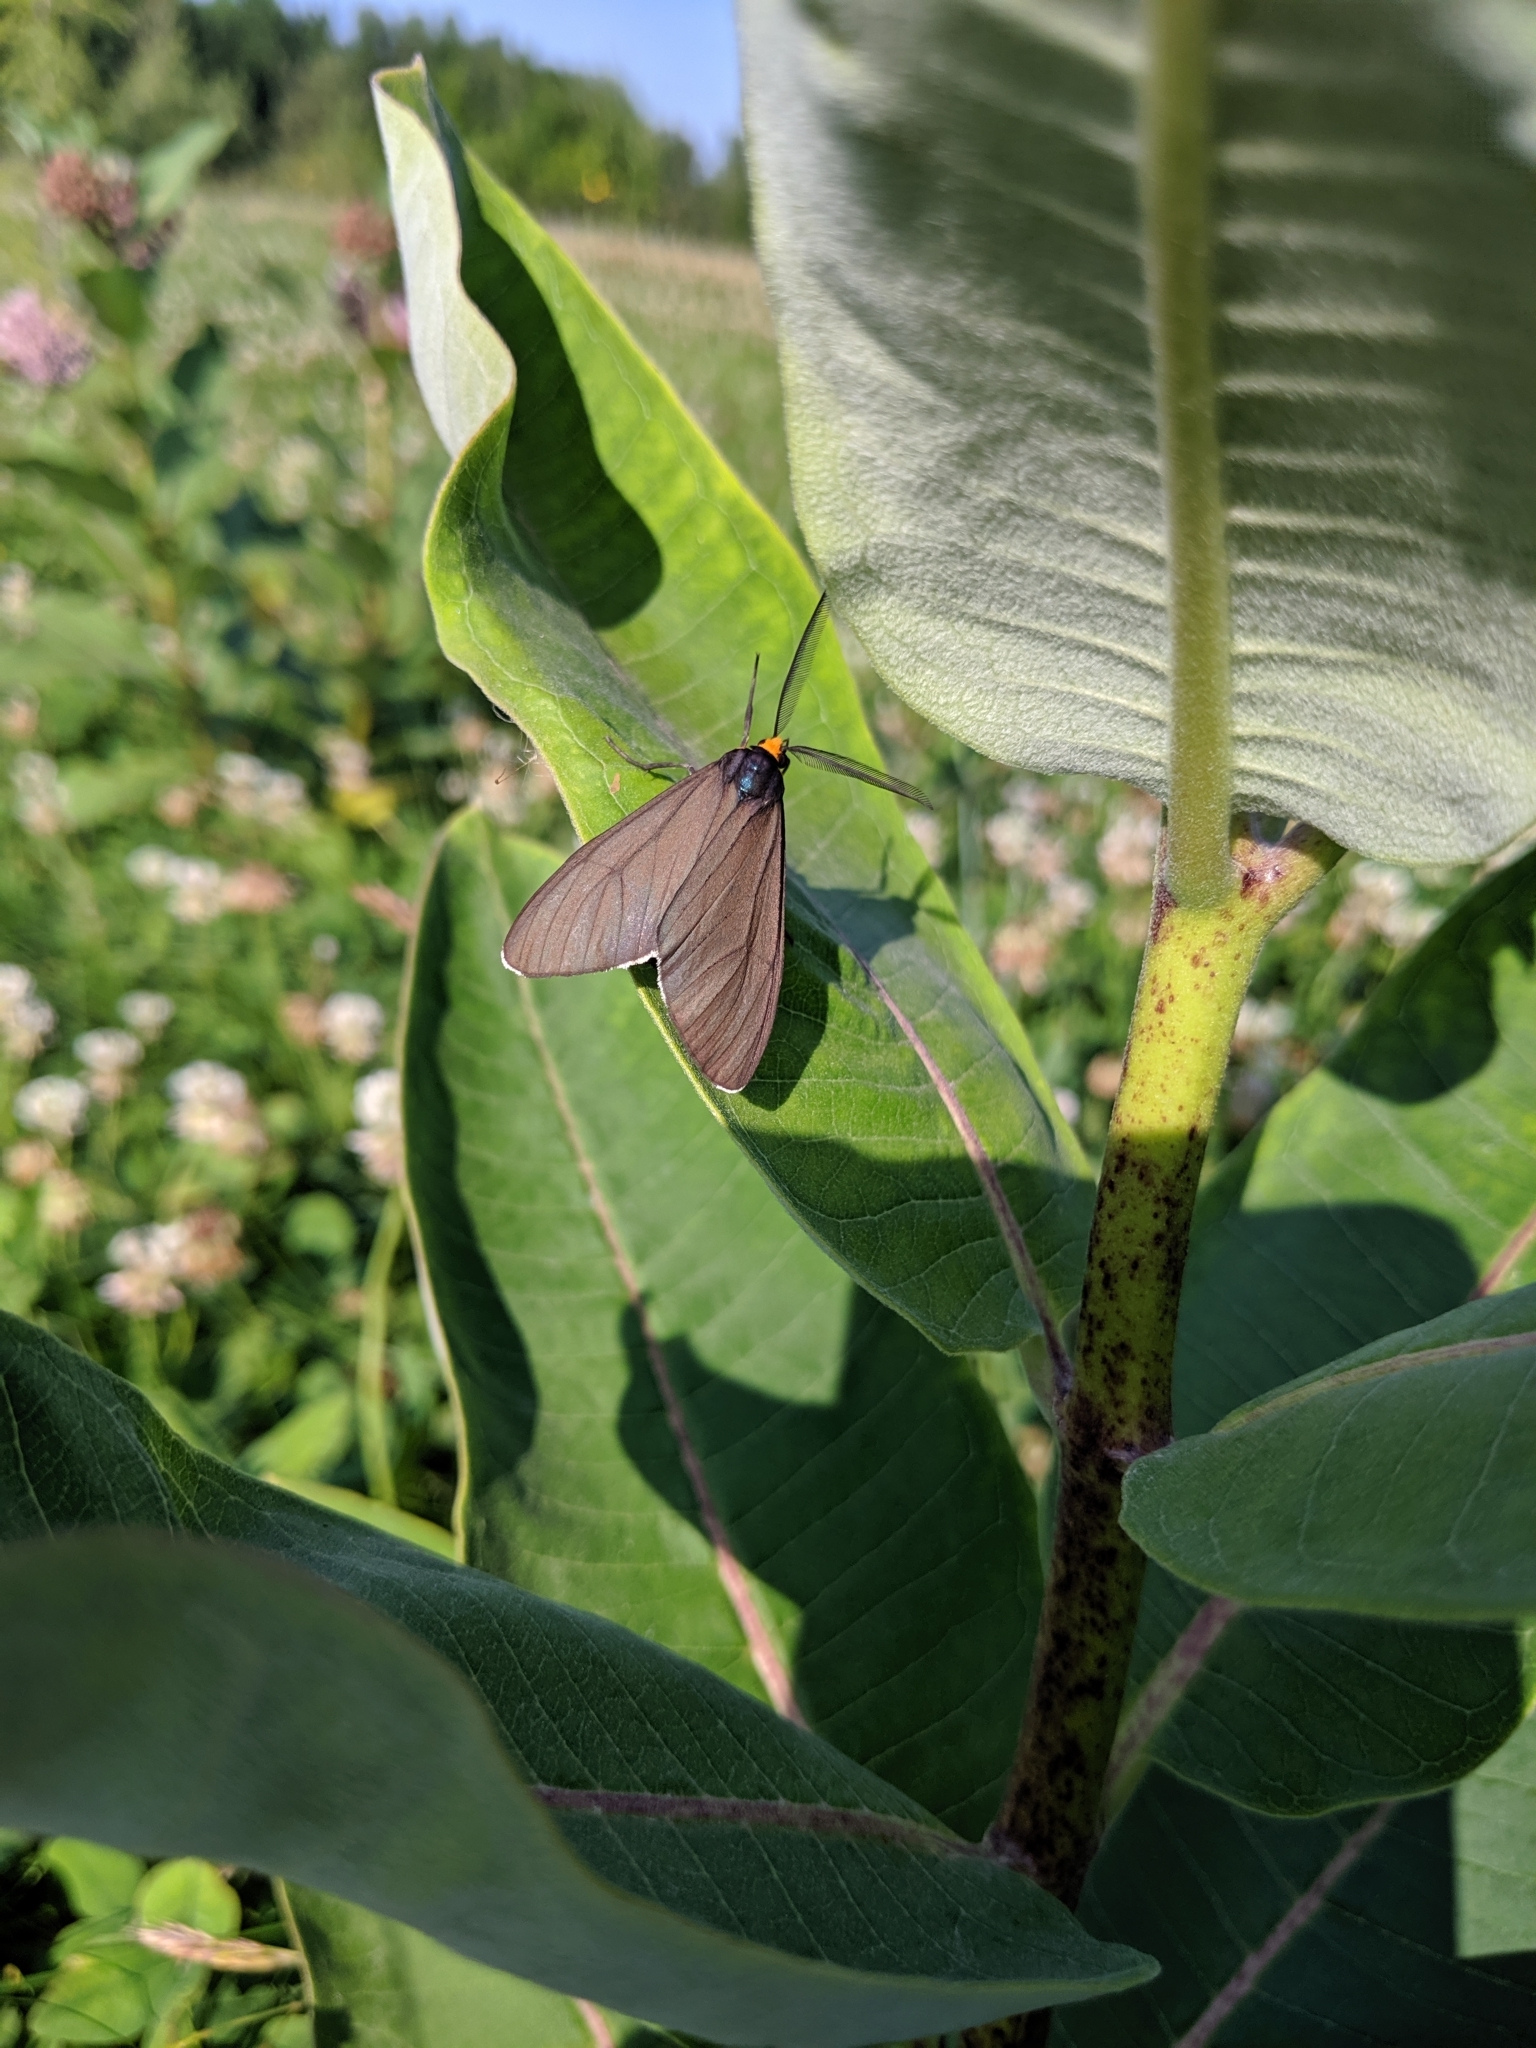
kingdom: Animalia
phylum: Arthropoda
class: Insecta
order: Lepidoptera
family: Erebidae
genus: Ctenucha
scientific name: Ctenucha virginica
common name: Virginia ctenucha moth
